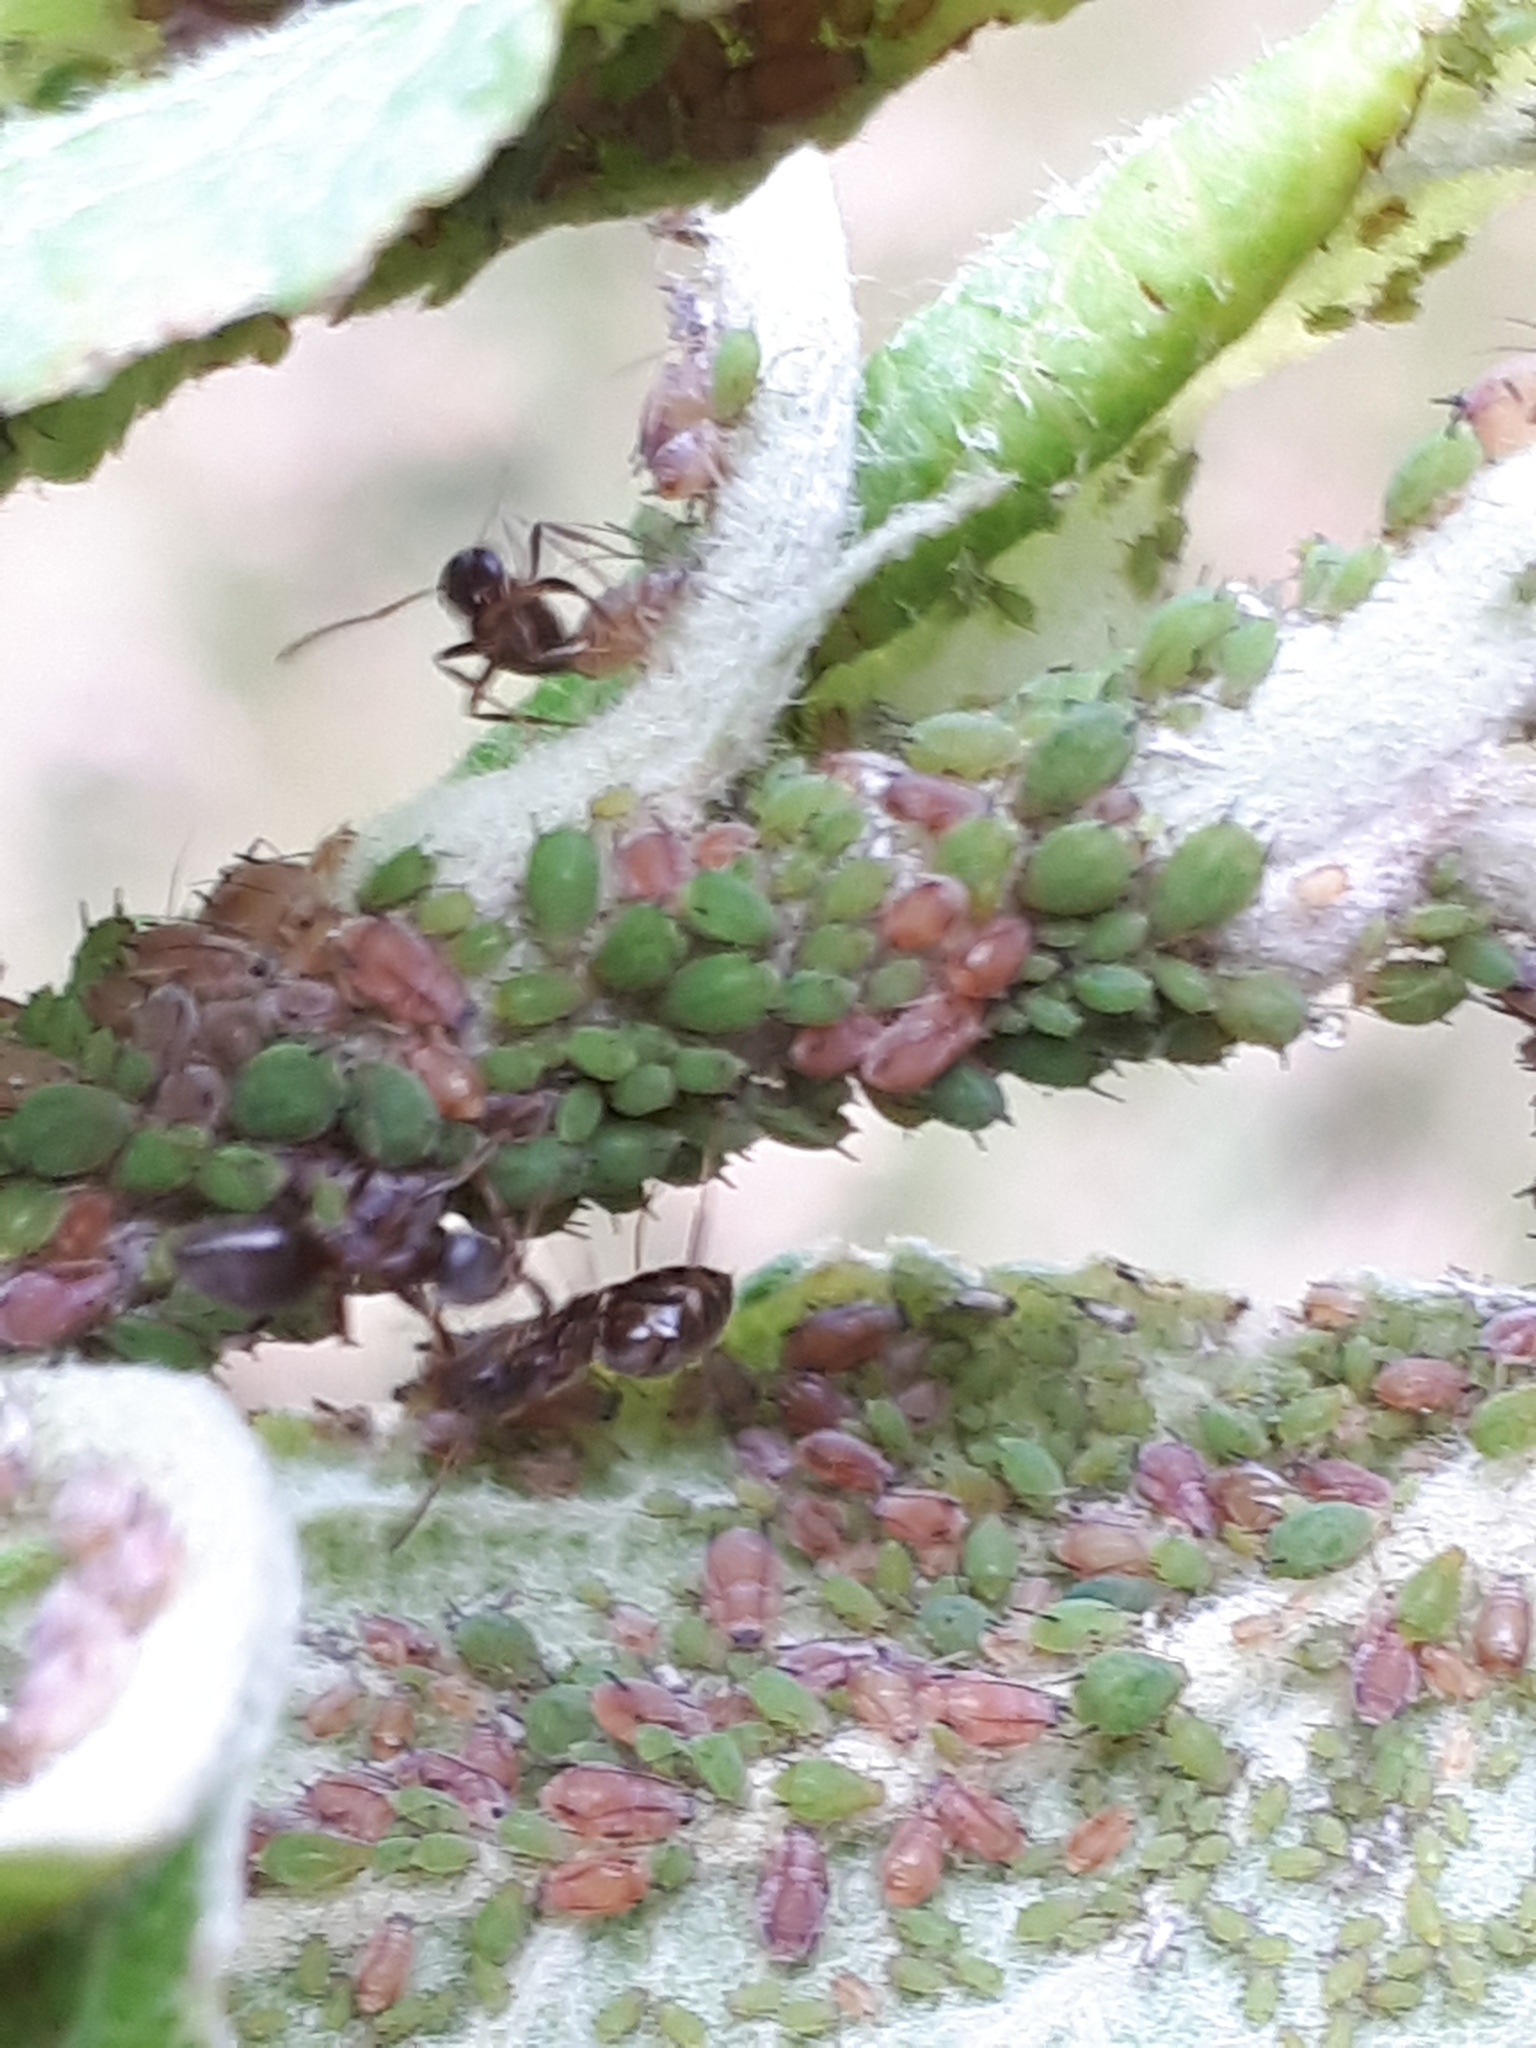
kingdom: Animalia
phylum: Arthropoda
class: Insecta
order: Hemiptera
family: Aphididae
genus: Dysaphis
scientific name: Dysaphis plantaginea
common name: Rosy apple aphid
